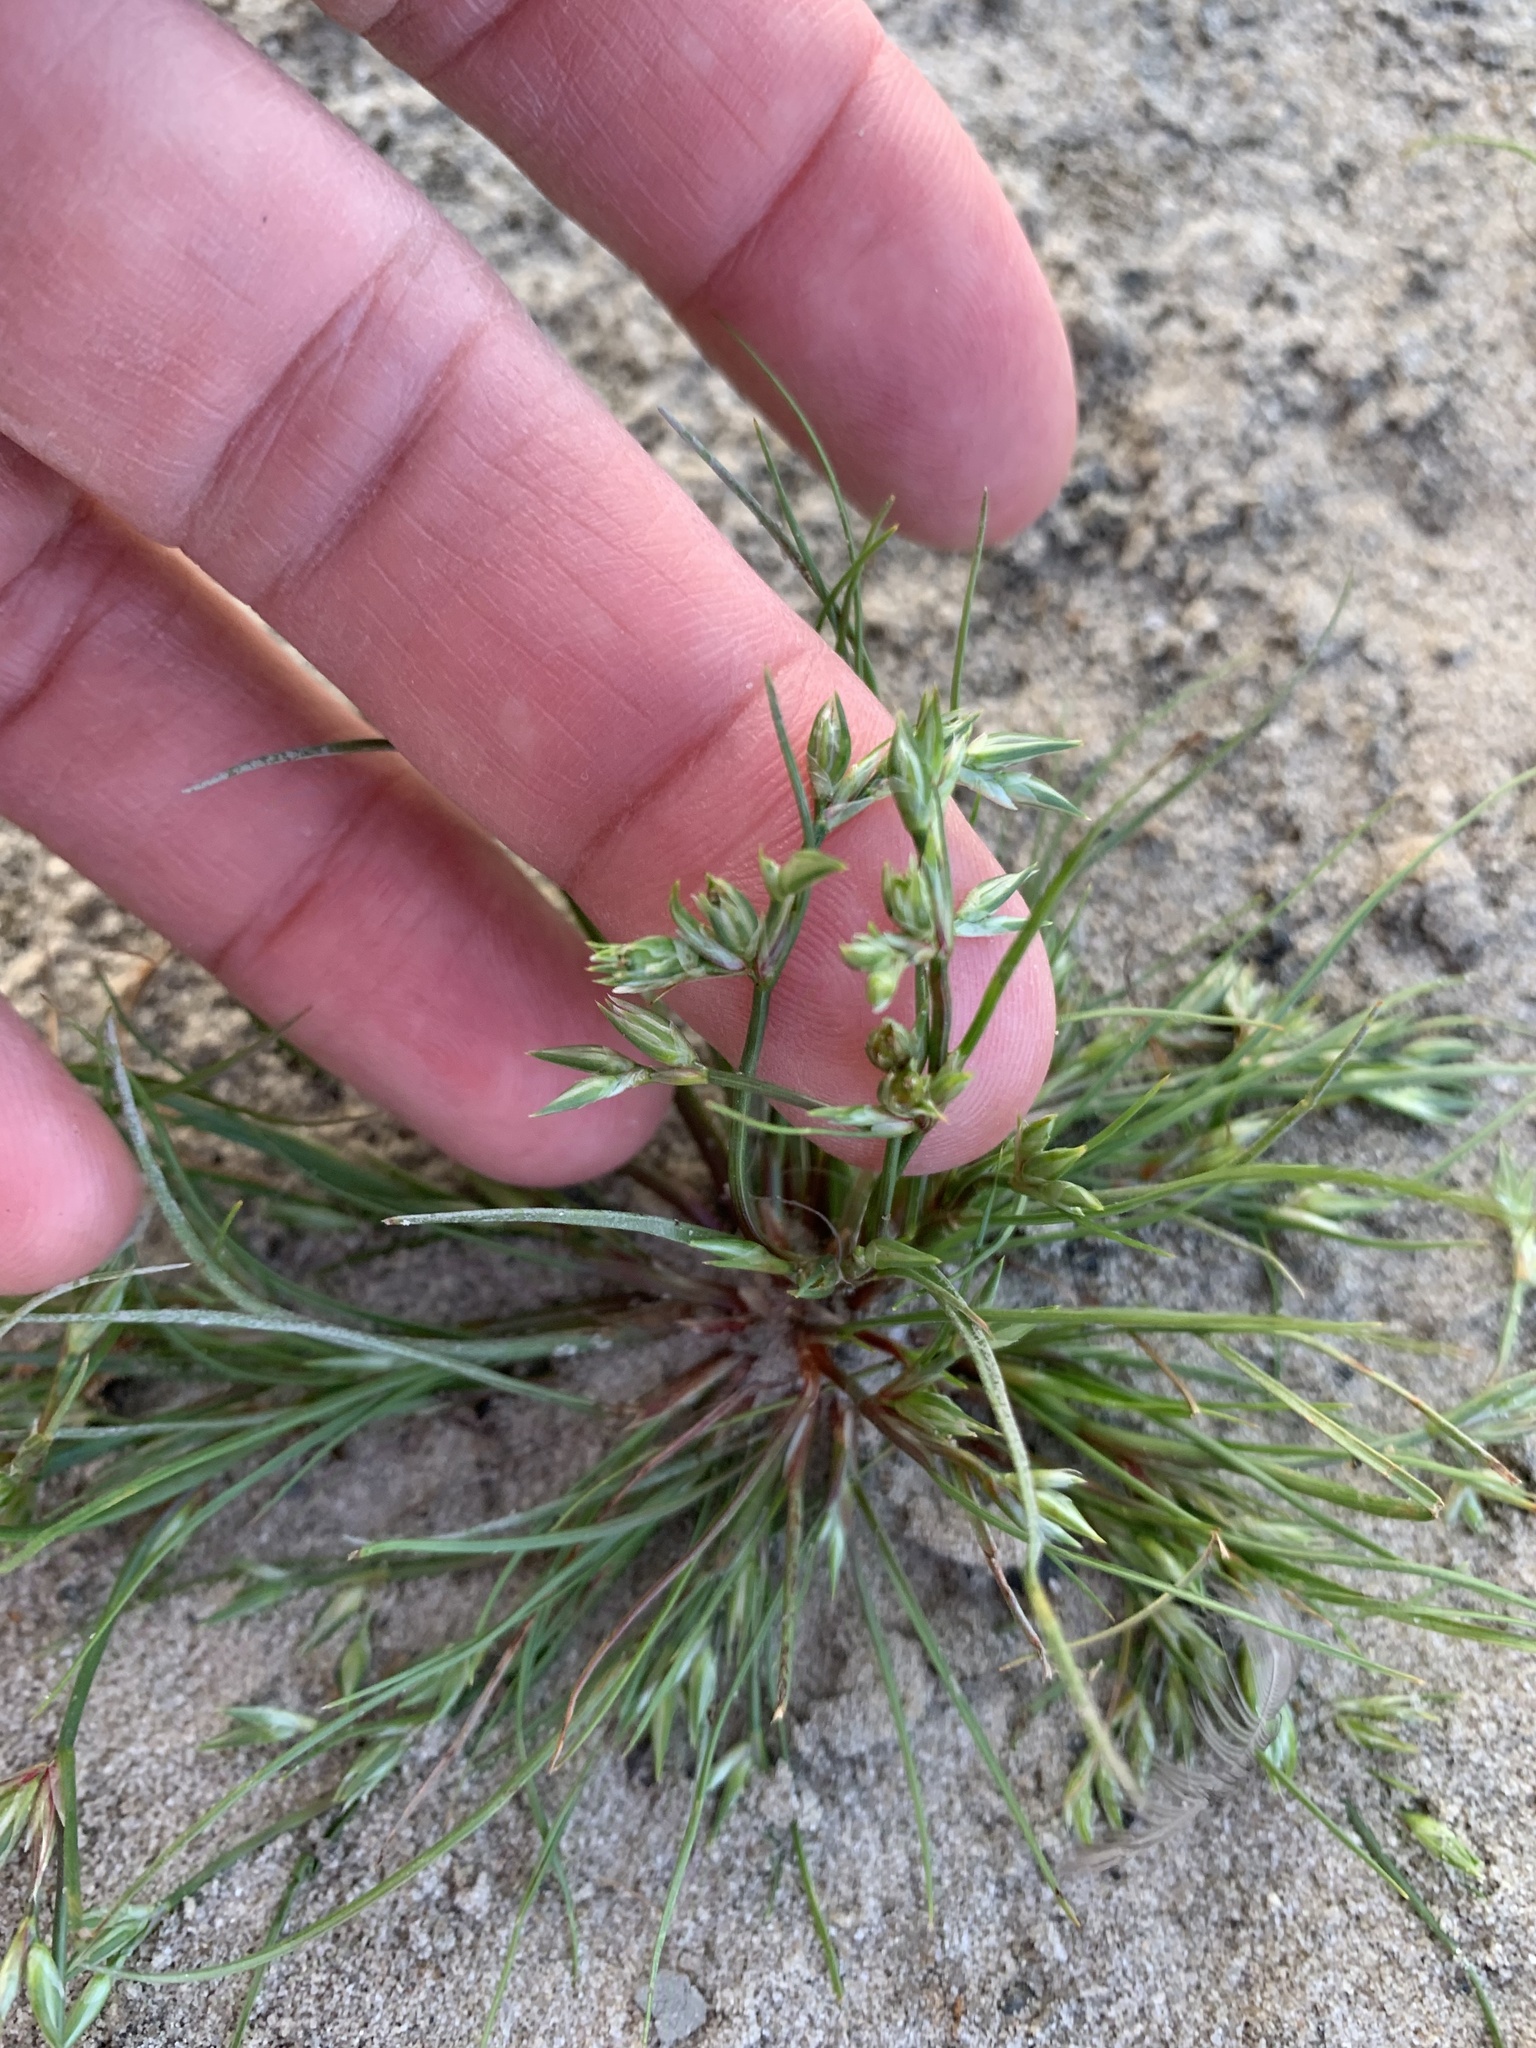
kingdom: Plantae
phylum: Tracheophyta
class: Liliopsida
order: Poales
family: Juncaceae
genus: Juncus
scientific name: Juncus bufonius
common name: Toad rush
